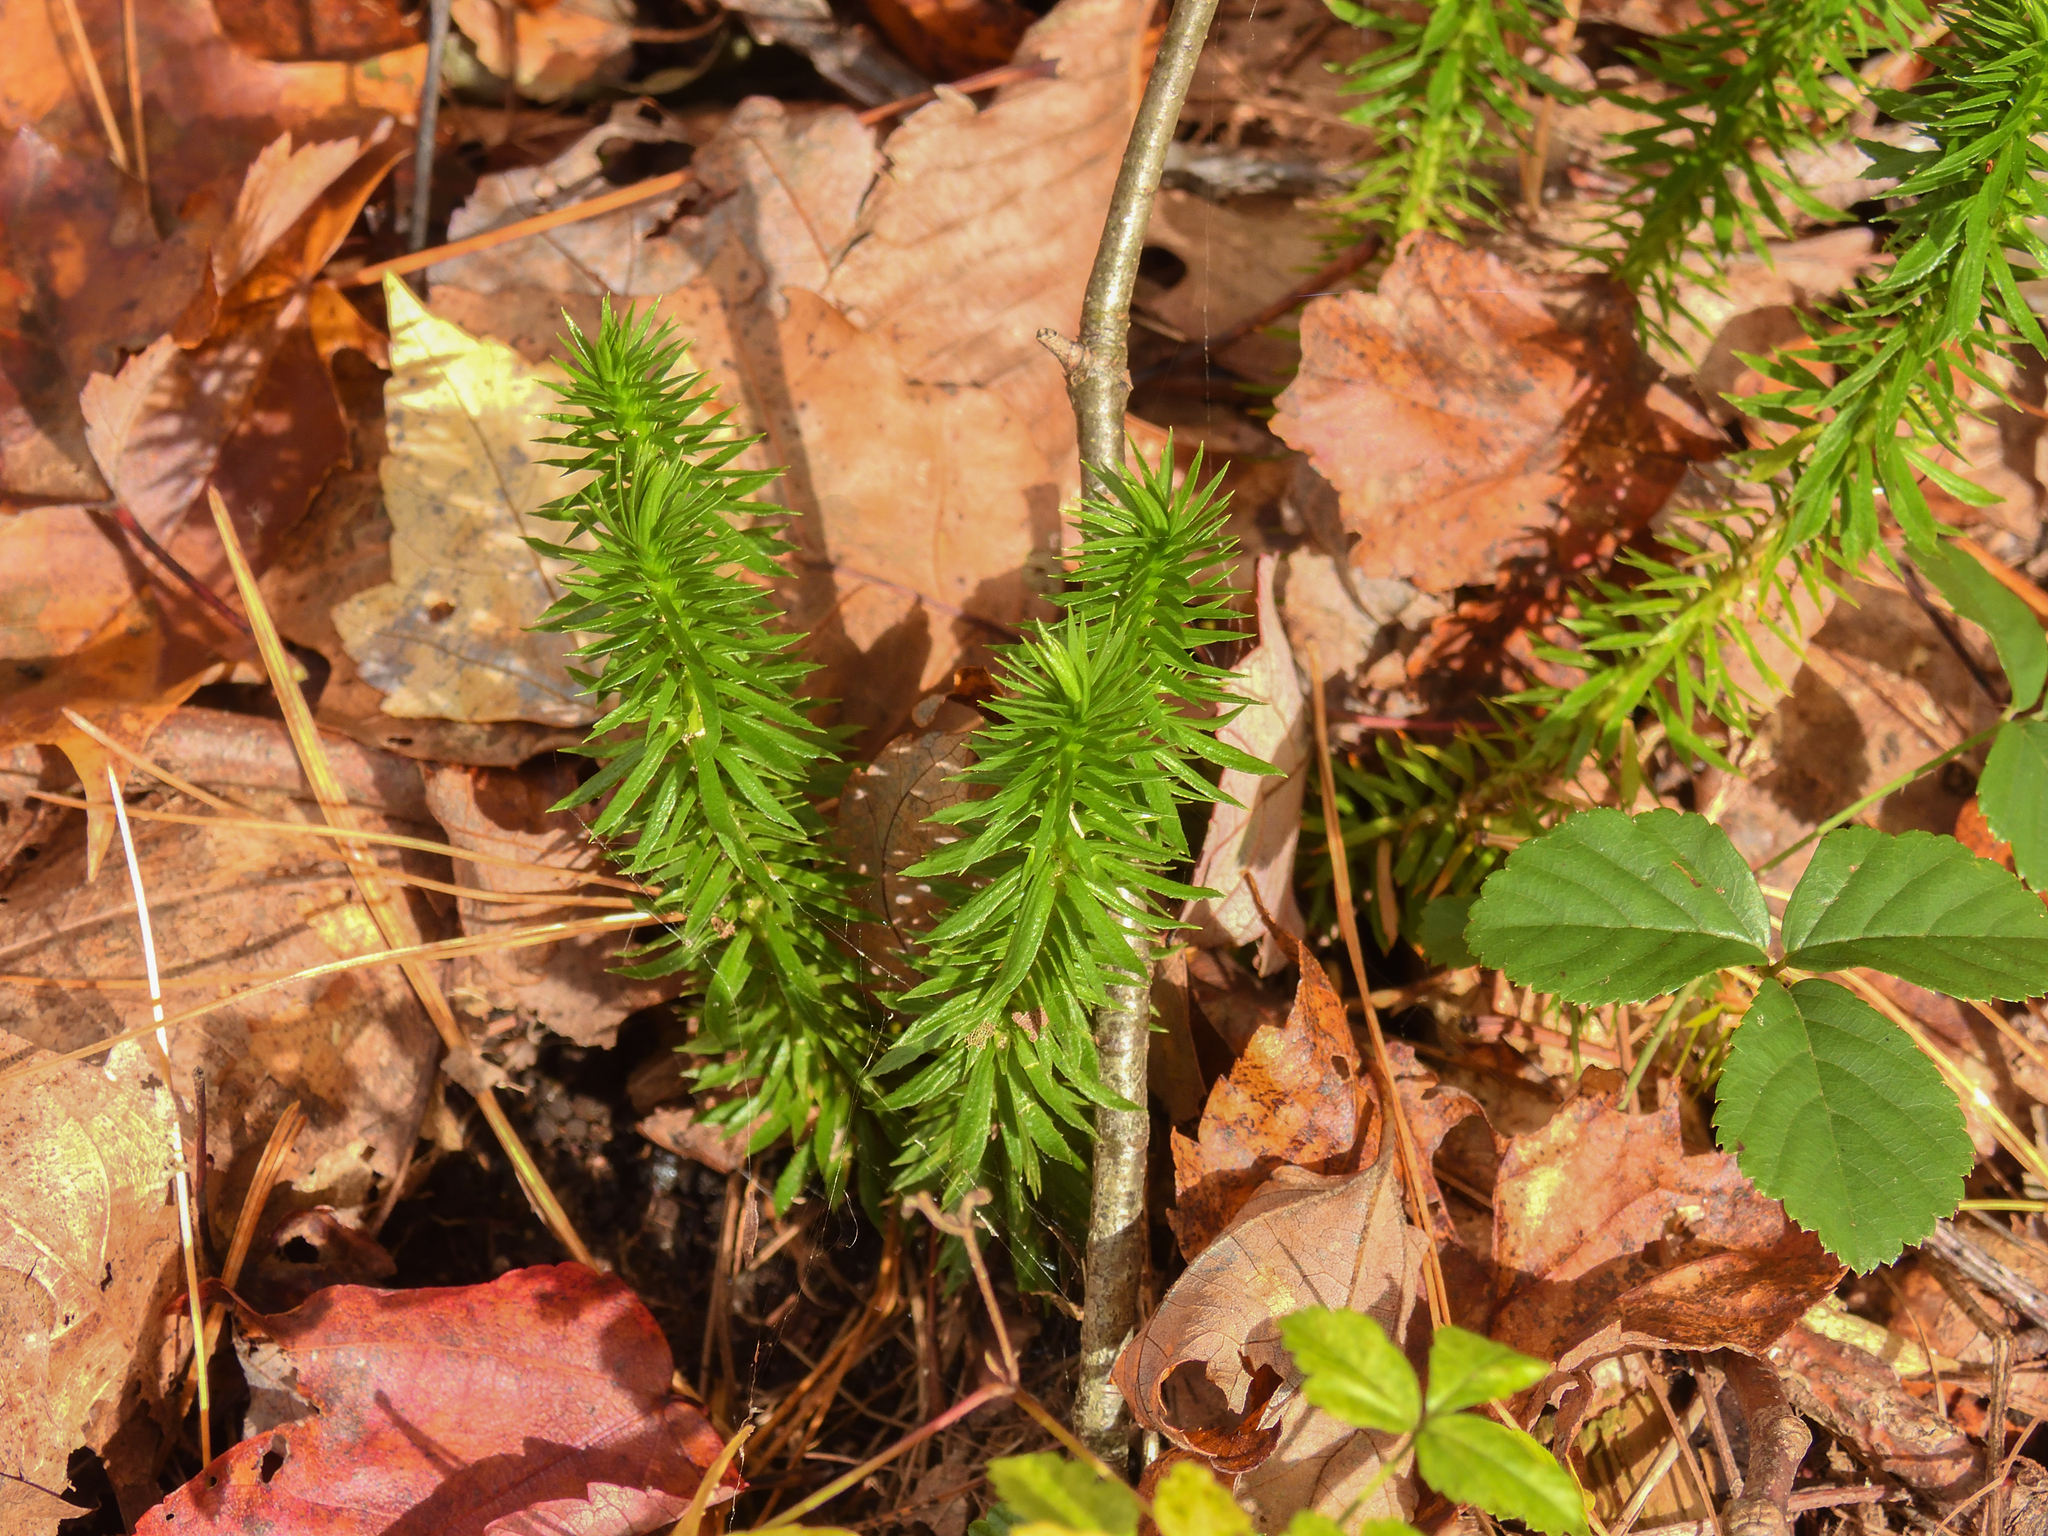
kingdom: Plantae
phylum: Tracheophyta
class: Lycopodiopsida
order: Lycopodiales
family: Lycopodiaceae
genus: Huperzia
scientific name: Huperzia lucidula
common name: Shining clubmoss
